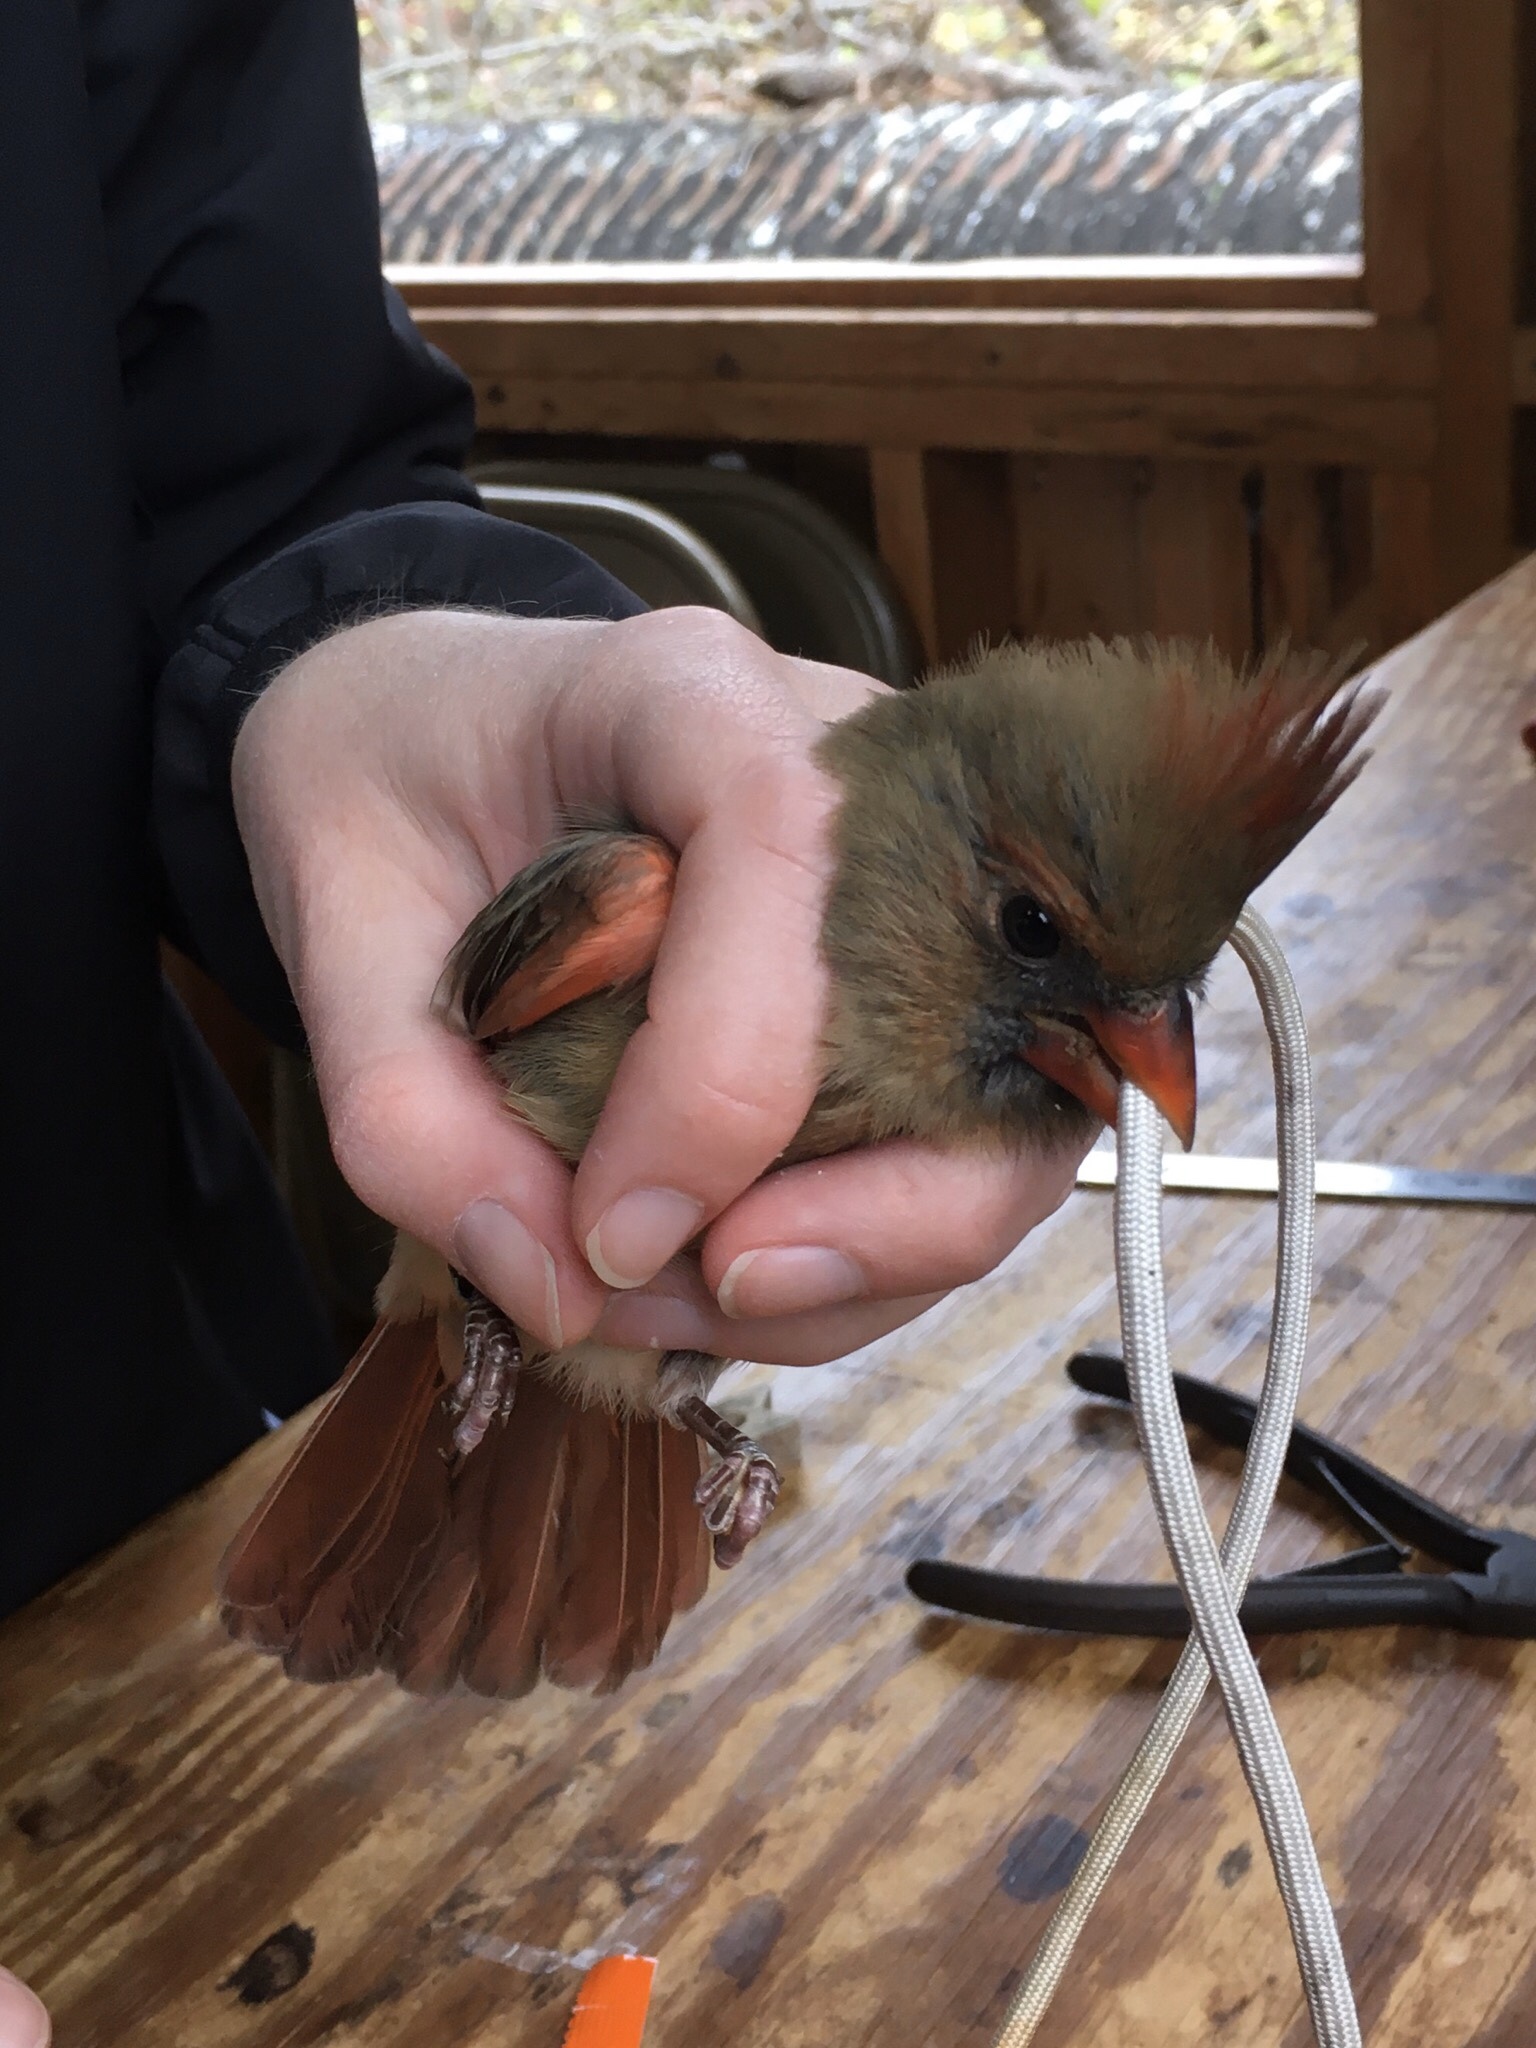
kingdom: Animalia
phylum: Chordata
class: Aves
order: Passeriformes
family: Cardinalidae
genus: Cardinalis
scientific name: Cardinalis cardinalis
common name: Northern cardinal
